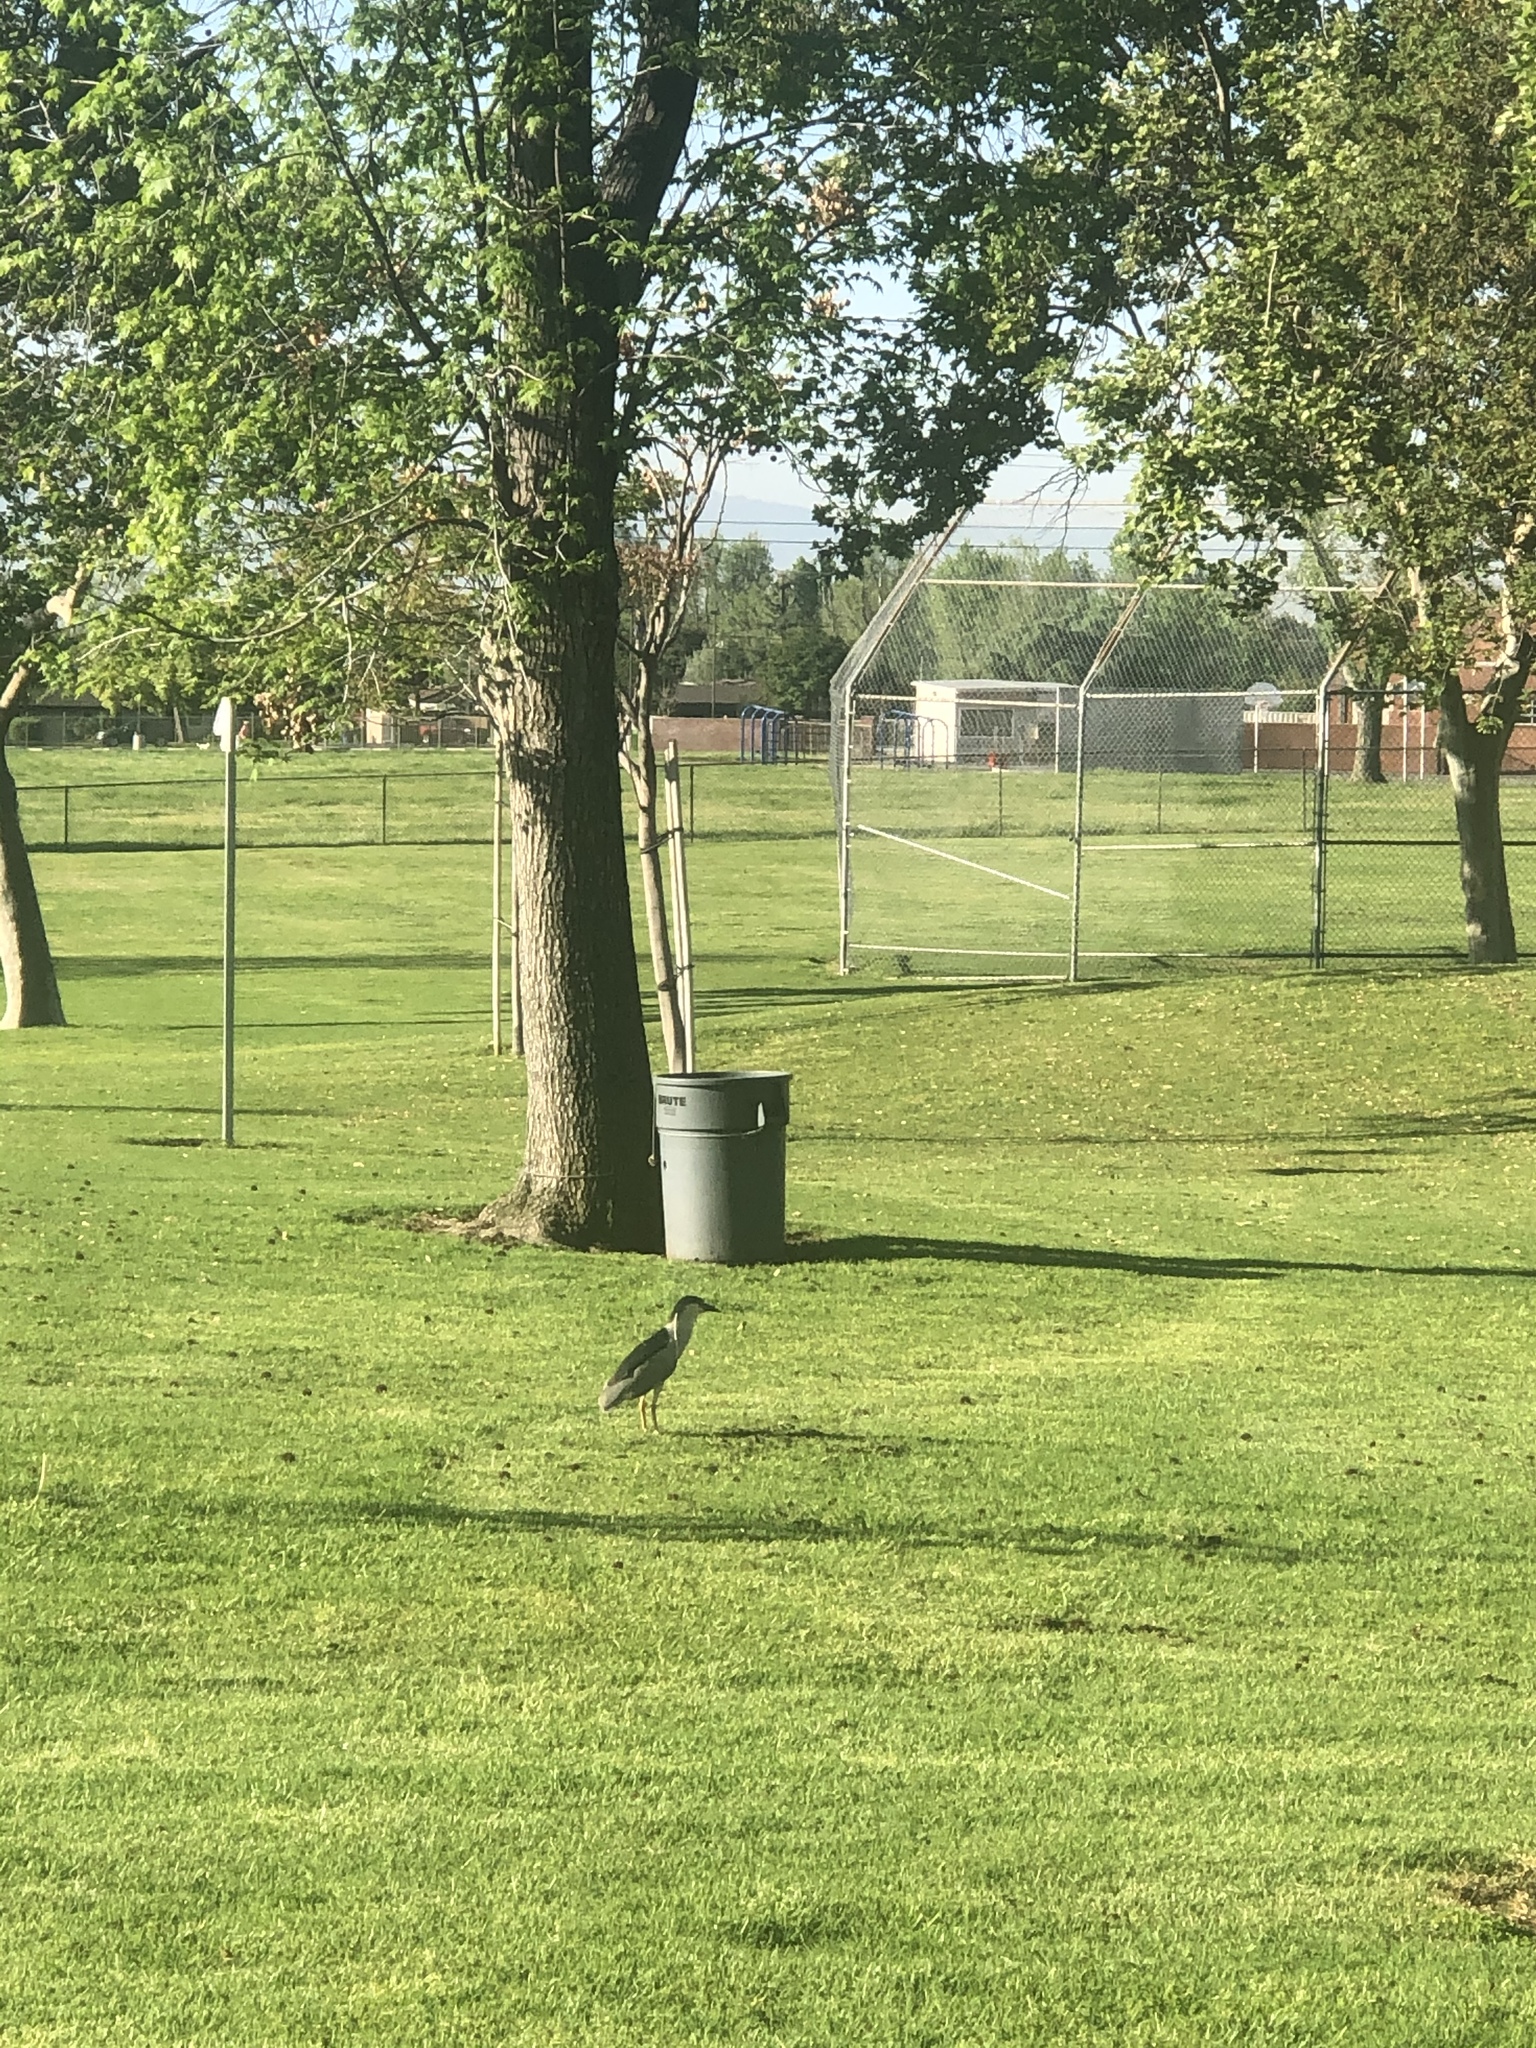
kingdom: Animalia
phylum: Chordata
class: Aves
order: Pelecaniformes
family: Ardeidae
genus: Nycticorax
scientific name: Nycticorax nycticorax
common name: Black-crowned night heron
